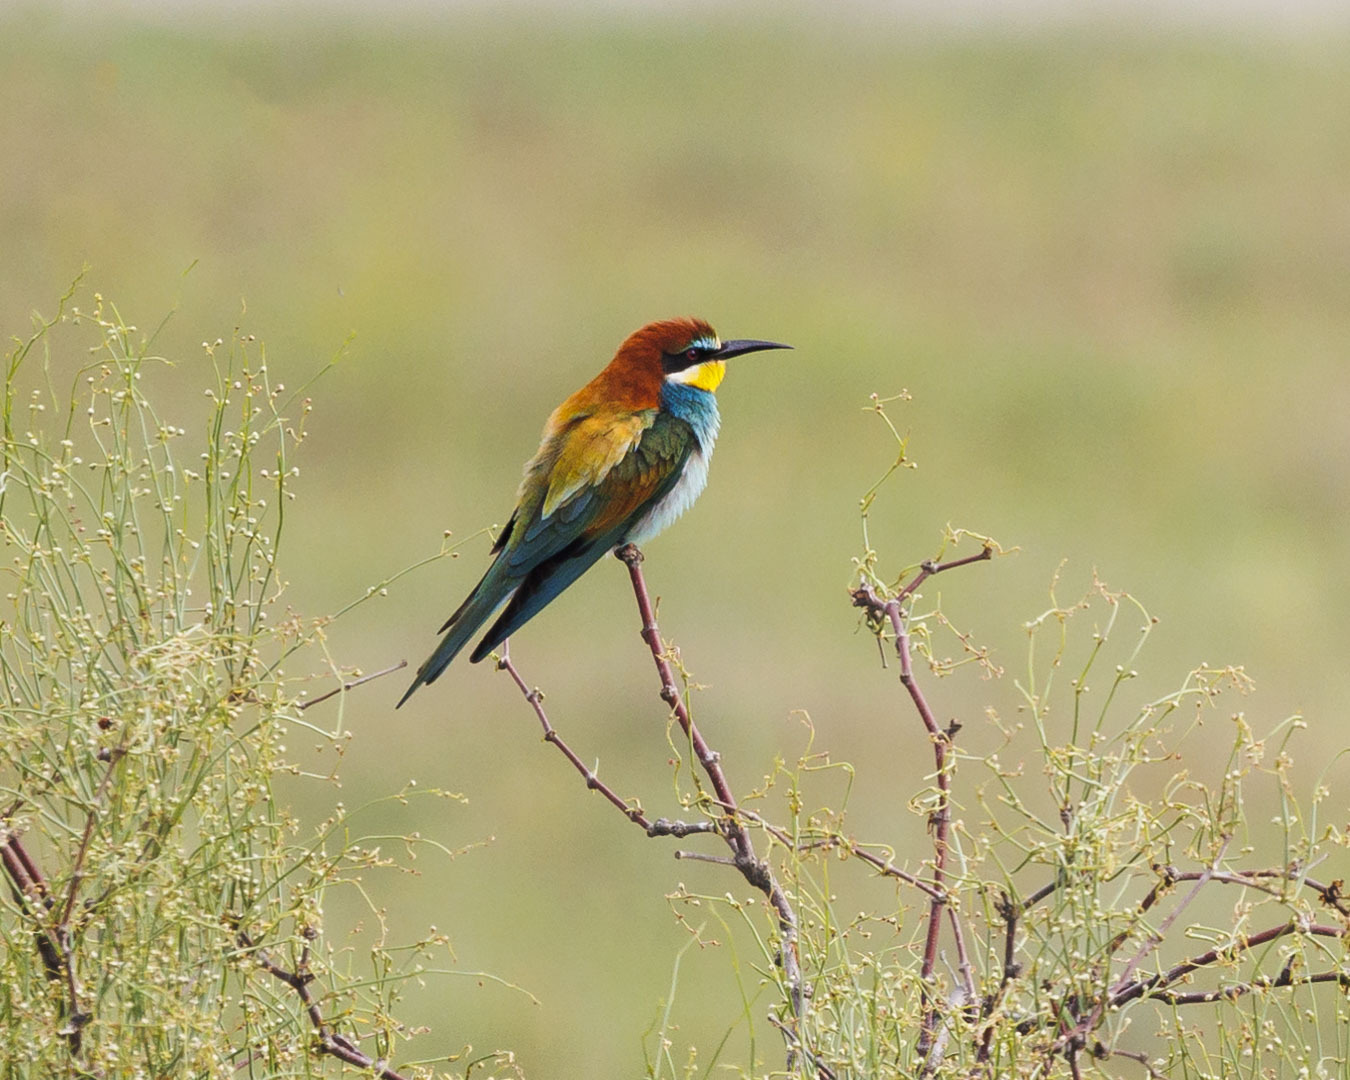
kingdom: Animalia
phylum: Chordata
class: Aves
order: Coraciiformes
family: Meropidae
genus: Merops
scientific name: Merops apiaster
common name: European bee-eater
